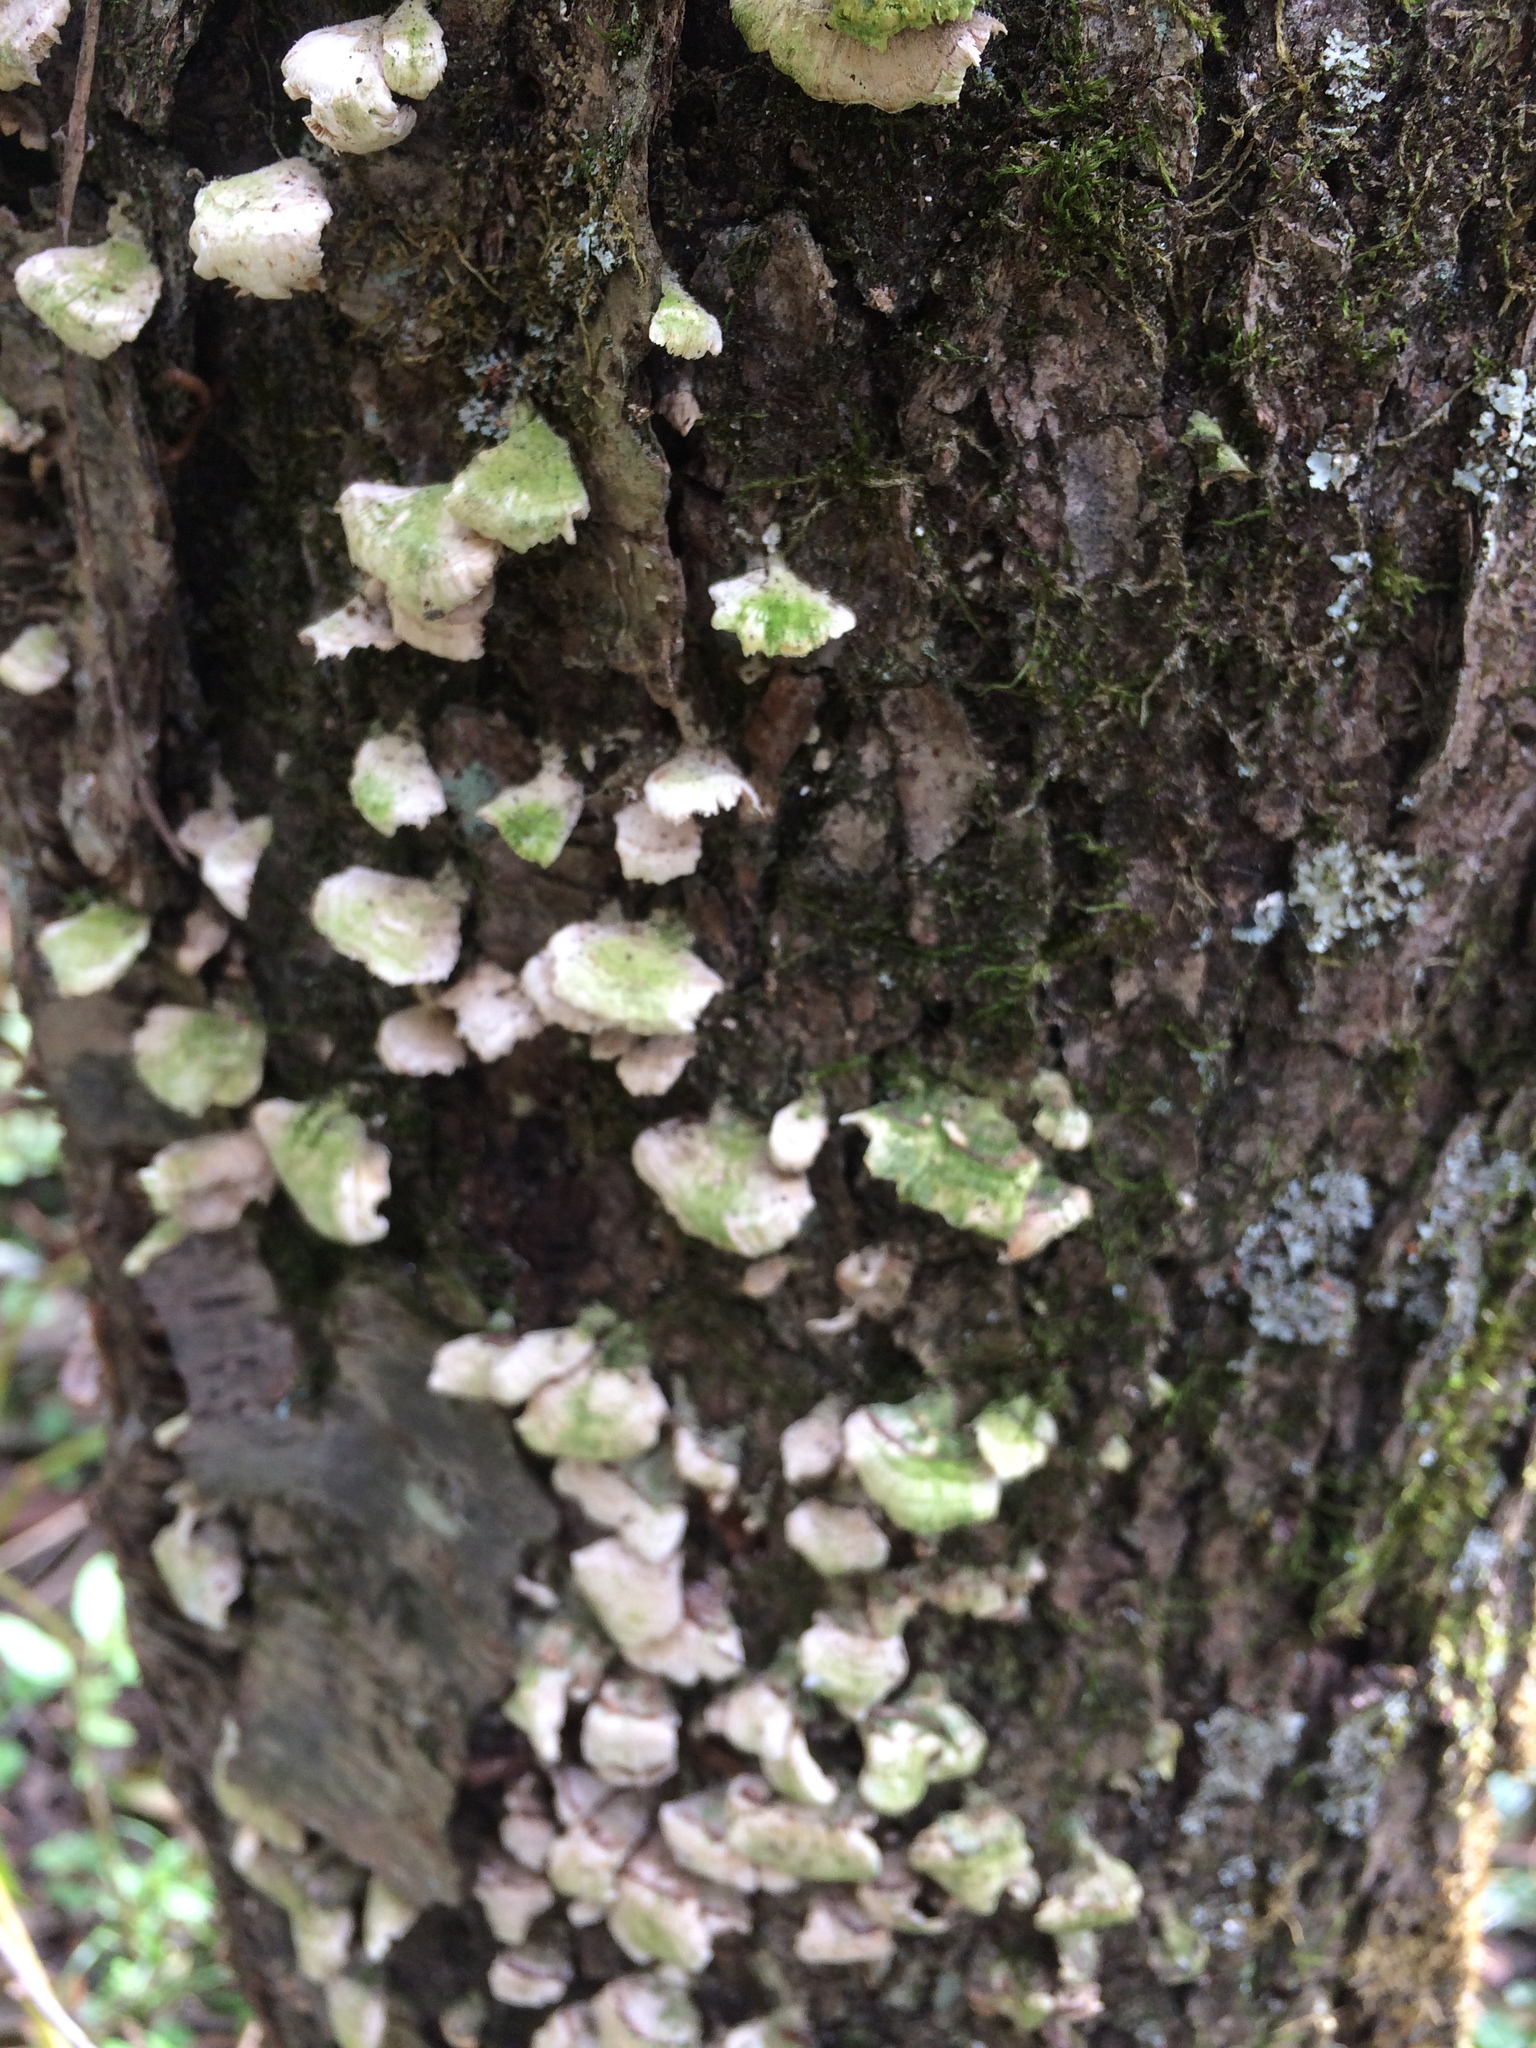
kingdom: Fungi
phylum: Basidiomycota
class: Agaricomycetes
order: Hymenochaetales
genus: Trichaptum
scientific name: Trichaptum biforme
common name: Violet-toothed polypore
